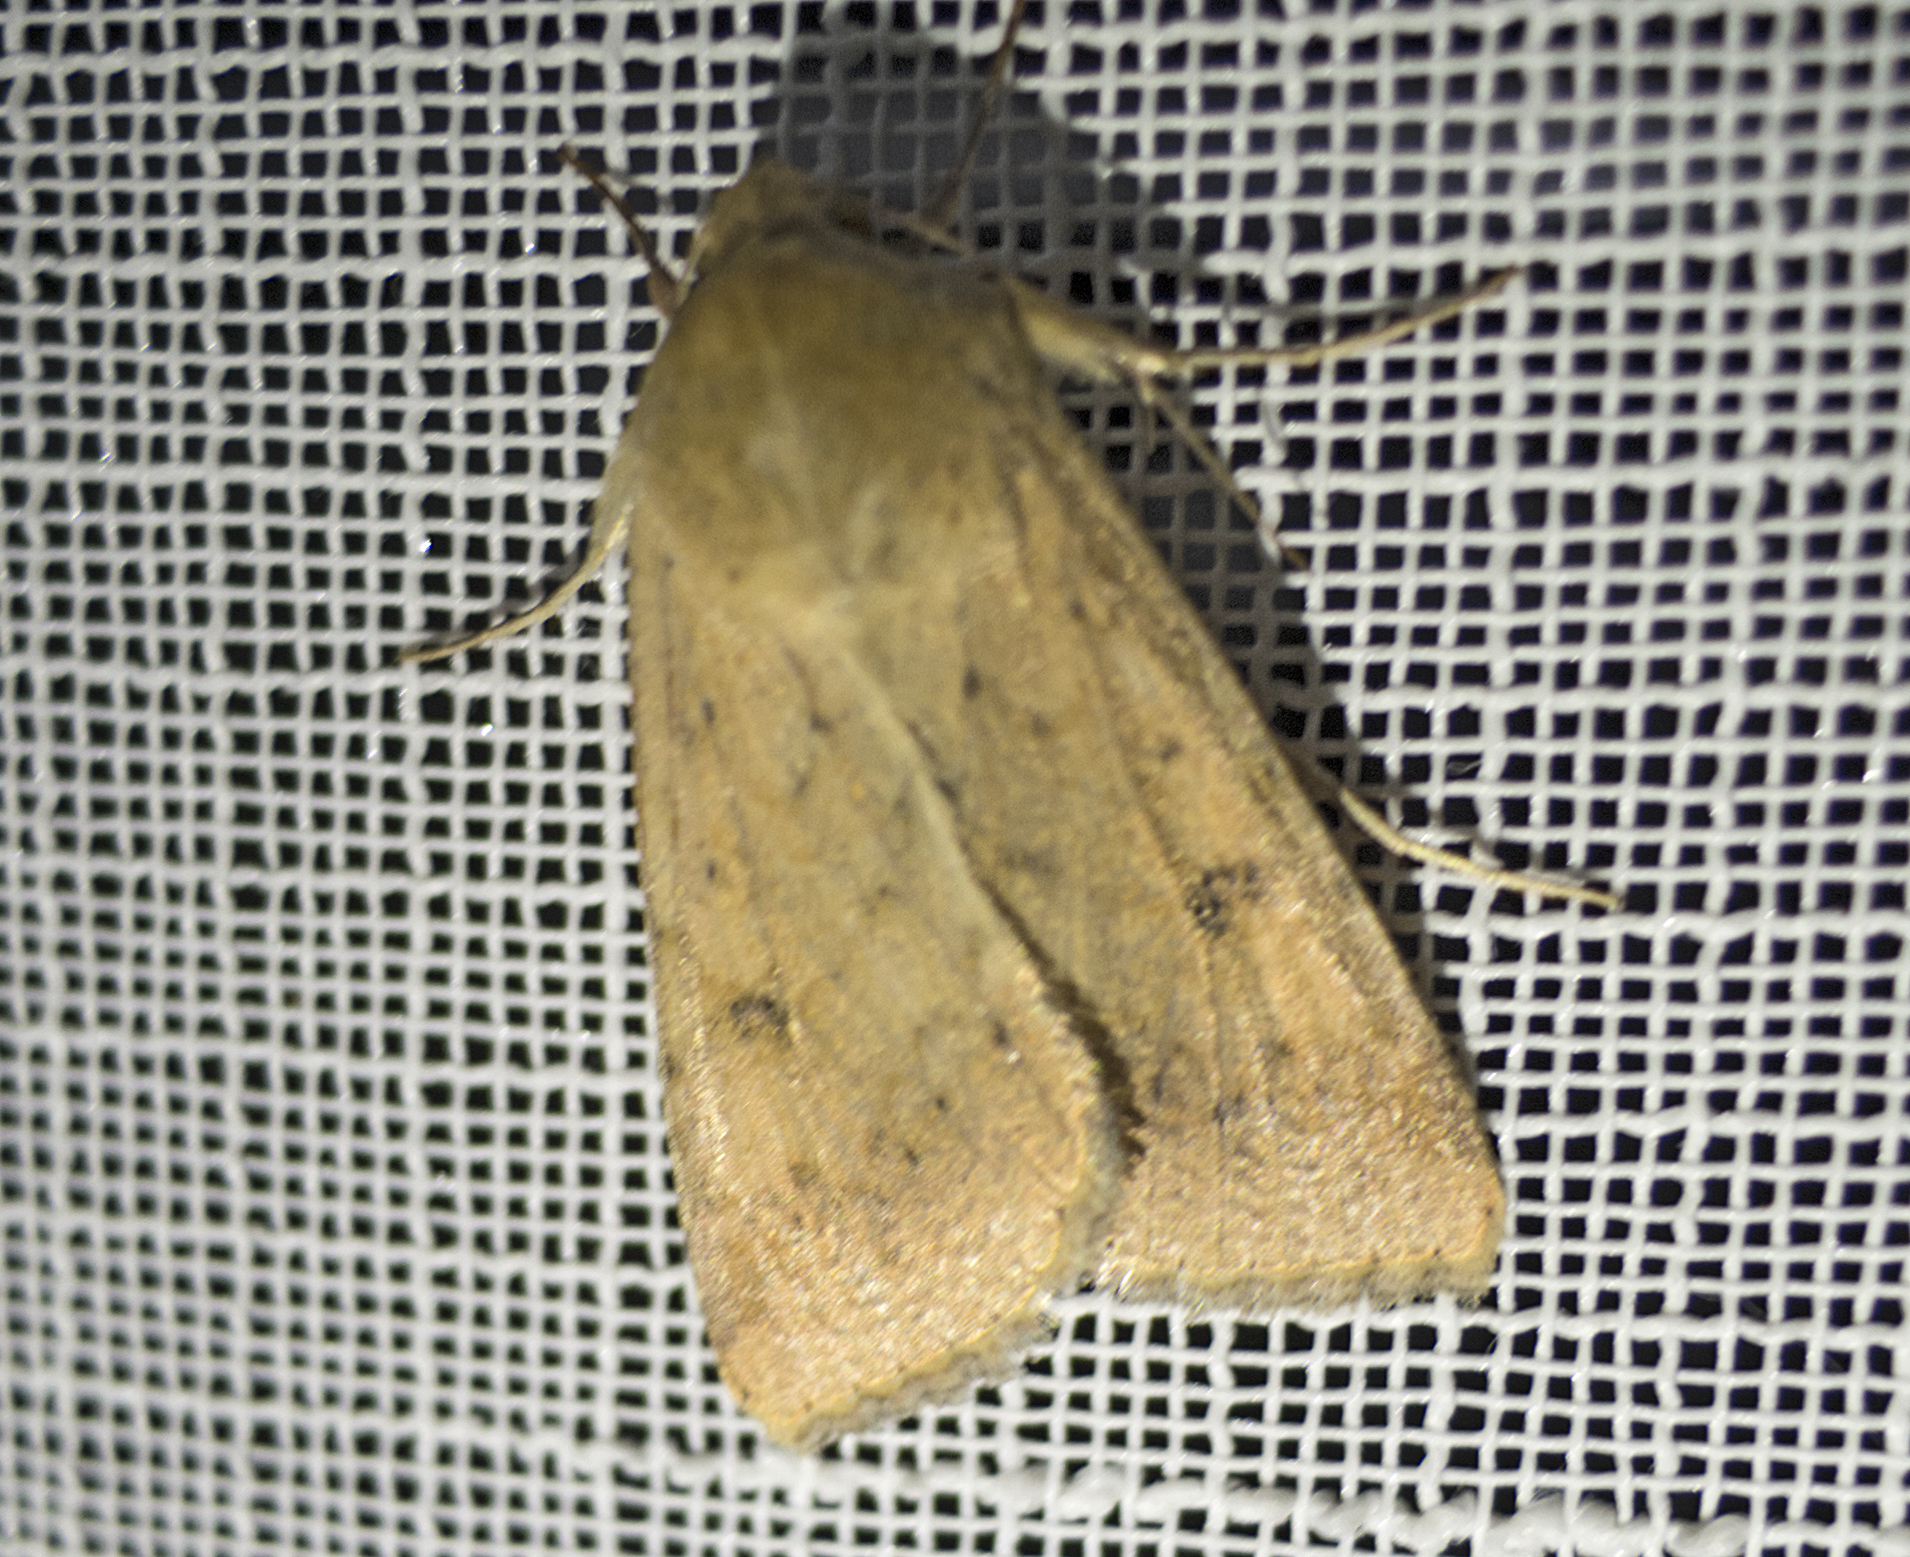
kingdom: Animalia
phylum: Arthropoda
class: Insecta
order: Lepidoptera
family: Noctuidae
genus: Helicoverpa
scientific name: Helicoverpa armigera
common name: Cotton bollworm
